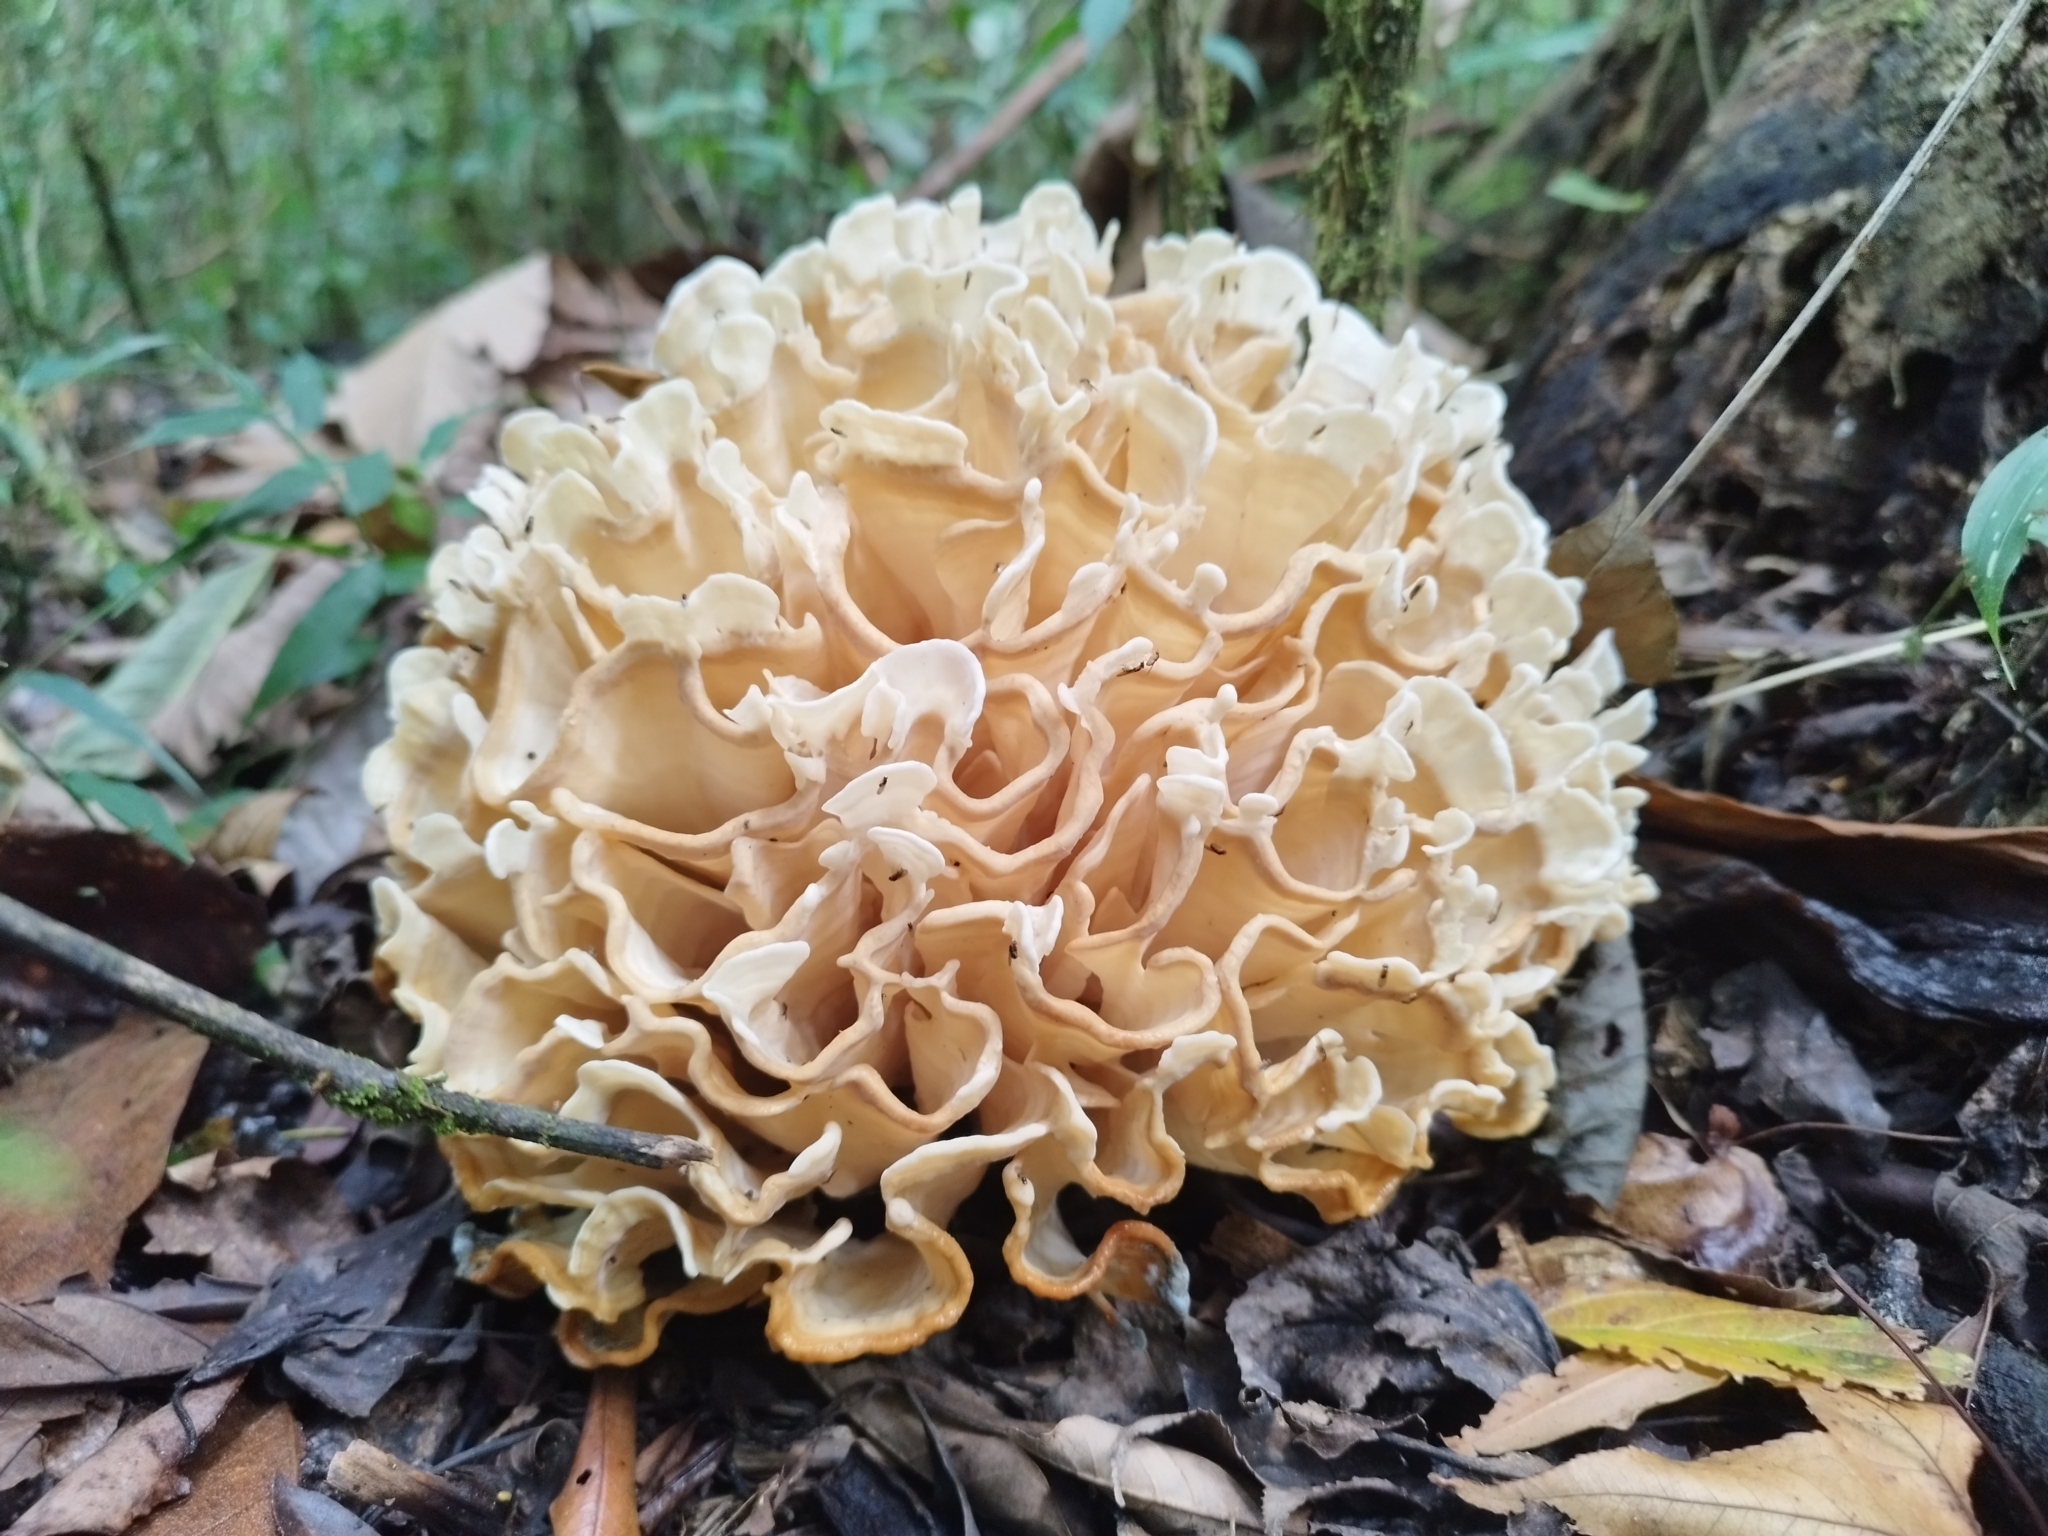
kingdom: Fungi
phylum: Basidiomycota
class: Agaricomycetes
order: Polyporales
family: Sparassidaceae
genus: Sparassis
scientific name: Sparassis spathulata
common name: Eastern cauliflower mushroom
